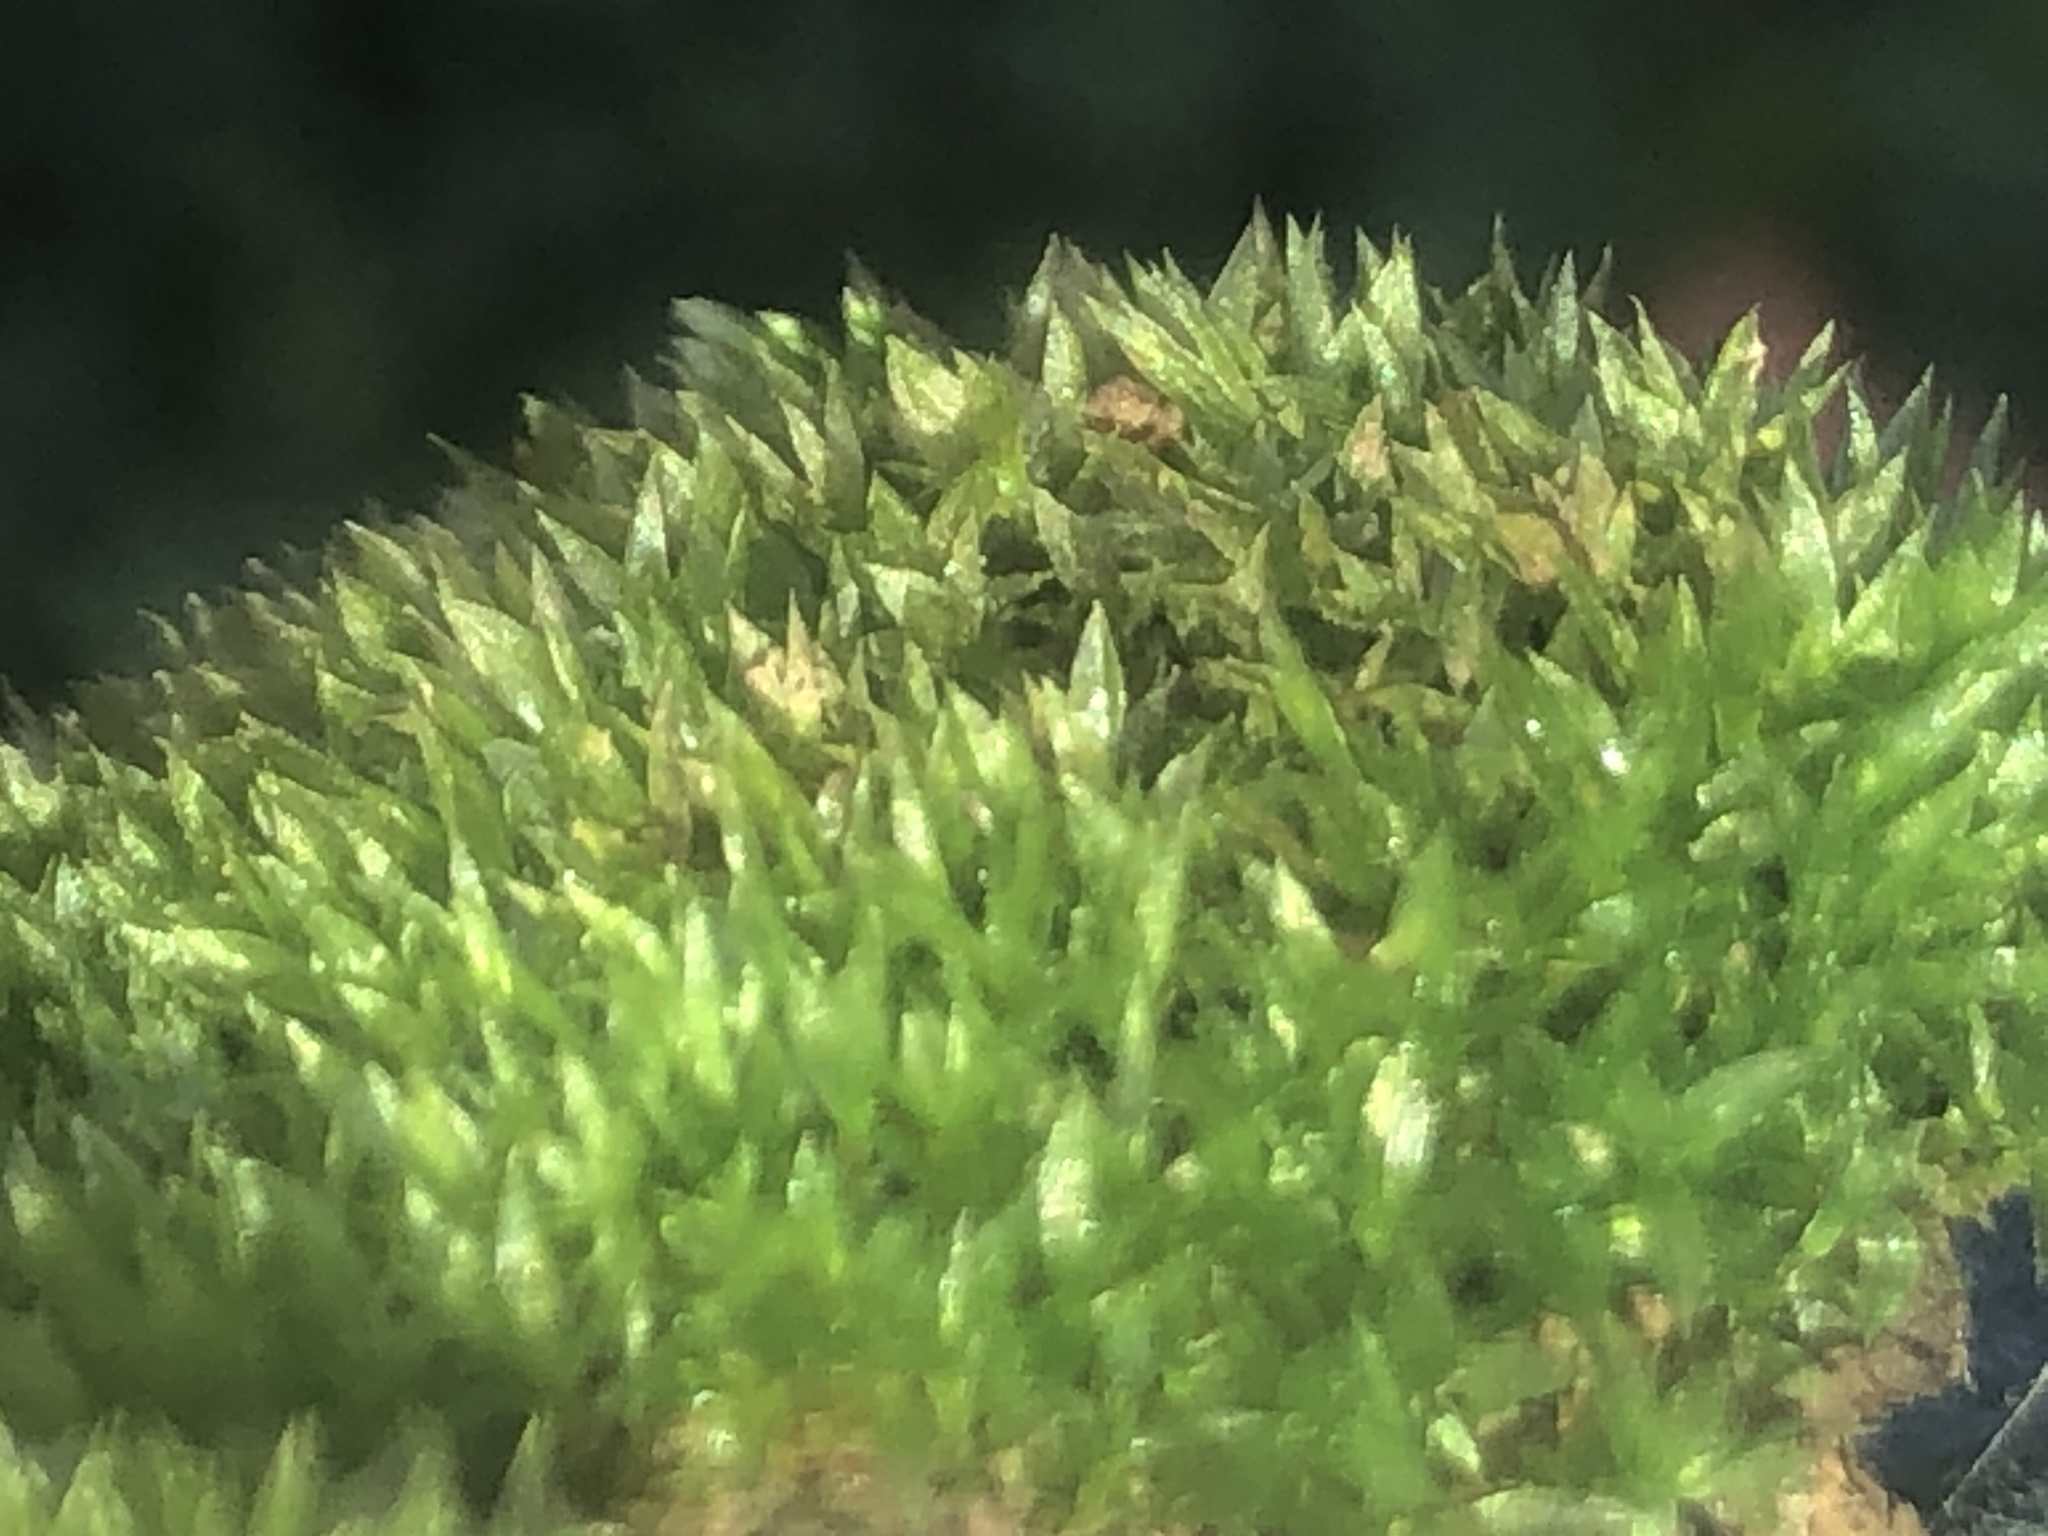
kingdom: Plantae
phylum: Bryophyta
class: Bryopsida
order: Funariales
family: Funariaceae
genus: Physcomitrium
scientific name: Physcomitrium pyriforme
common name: Common bladder-moss
